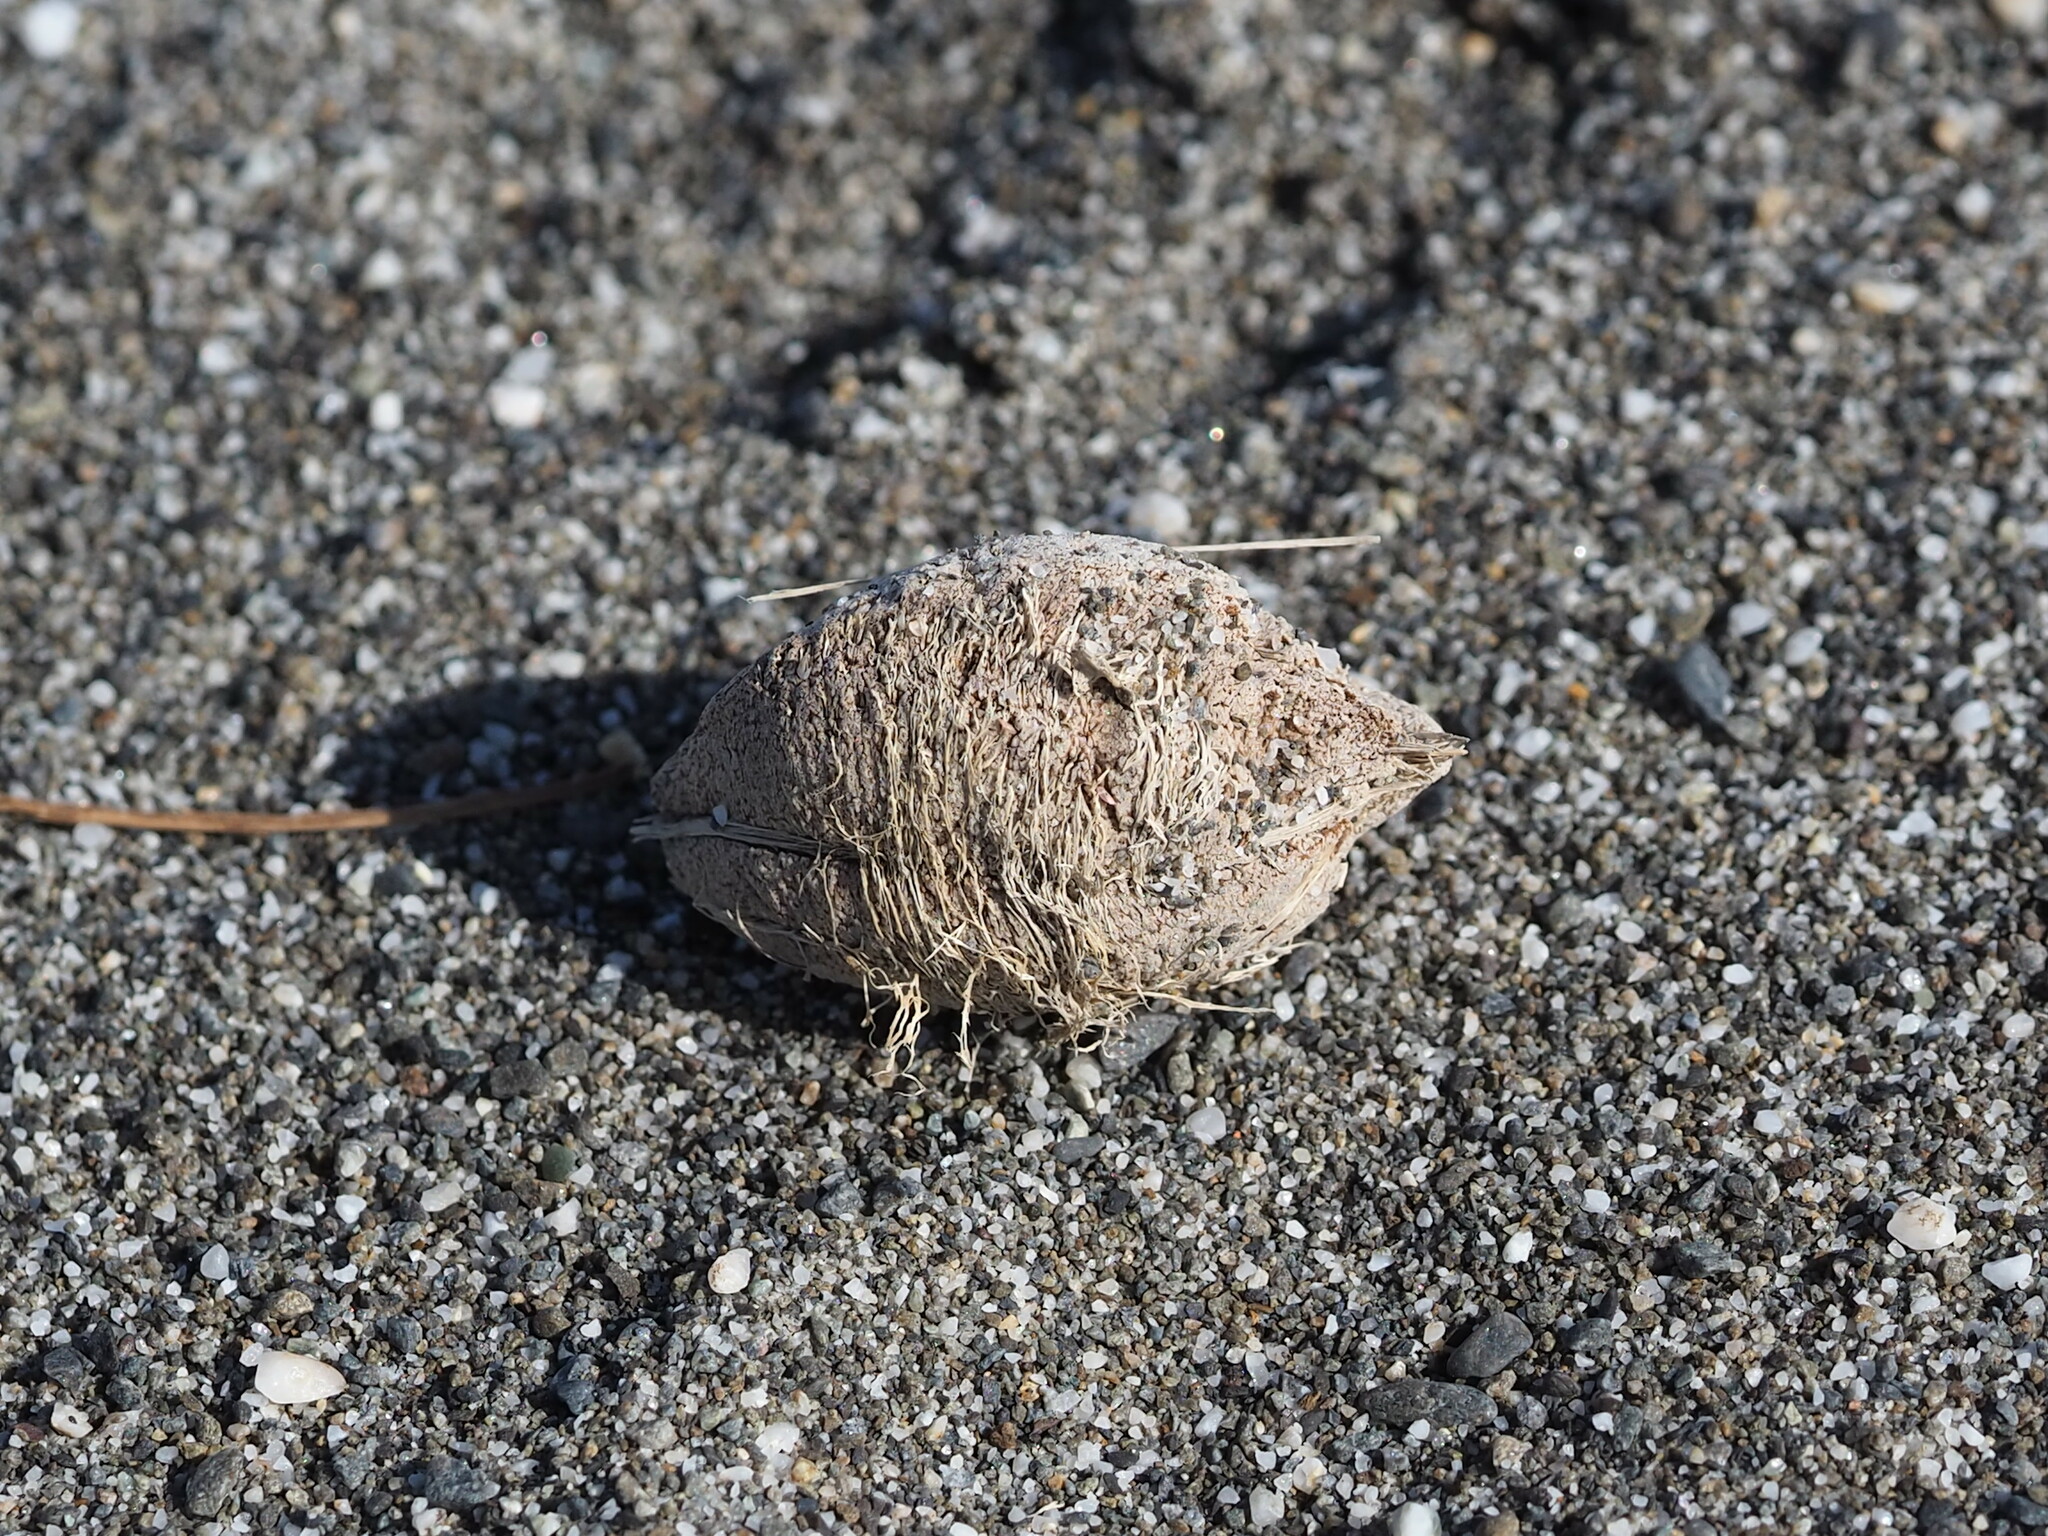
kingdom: Plantae
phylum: Tracheophyta
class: Magnoliopsida
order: Myrtales
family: Combretaceae
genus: Terminalia
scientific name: Terminalia catappa
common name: Tropical almond
